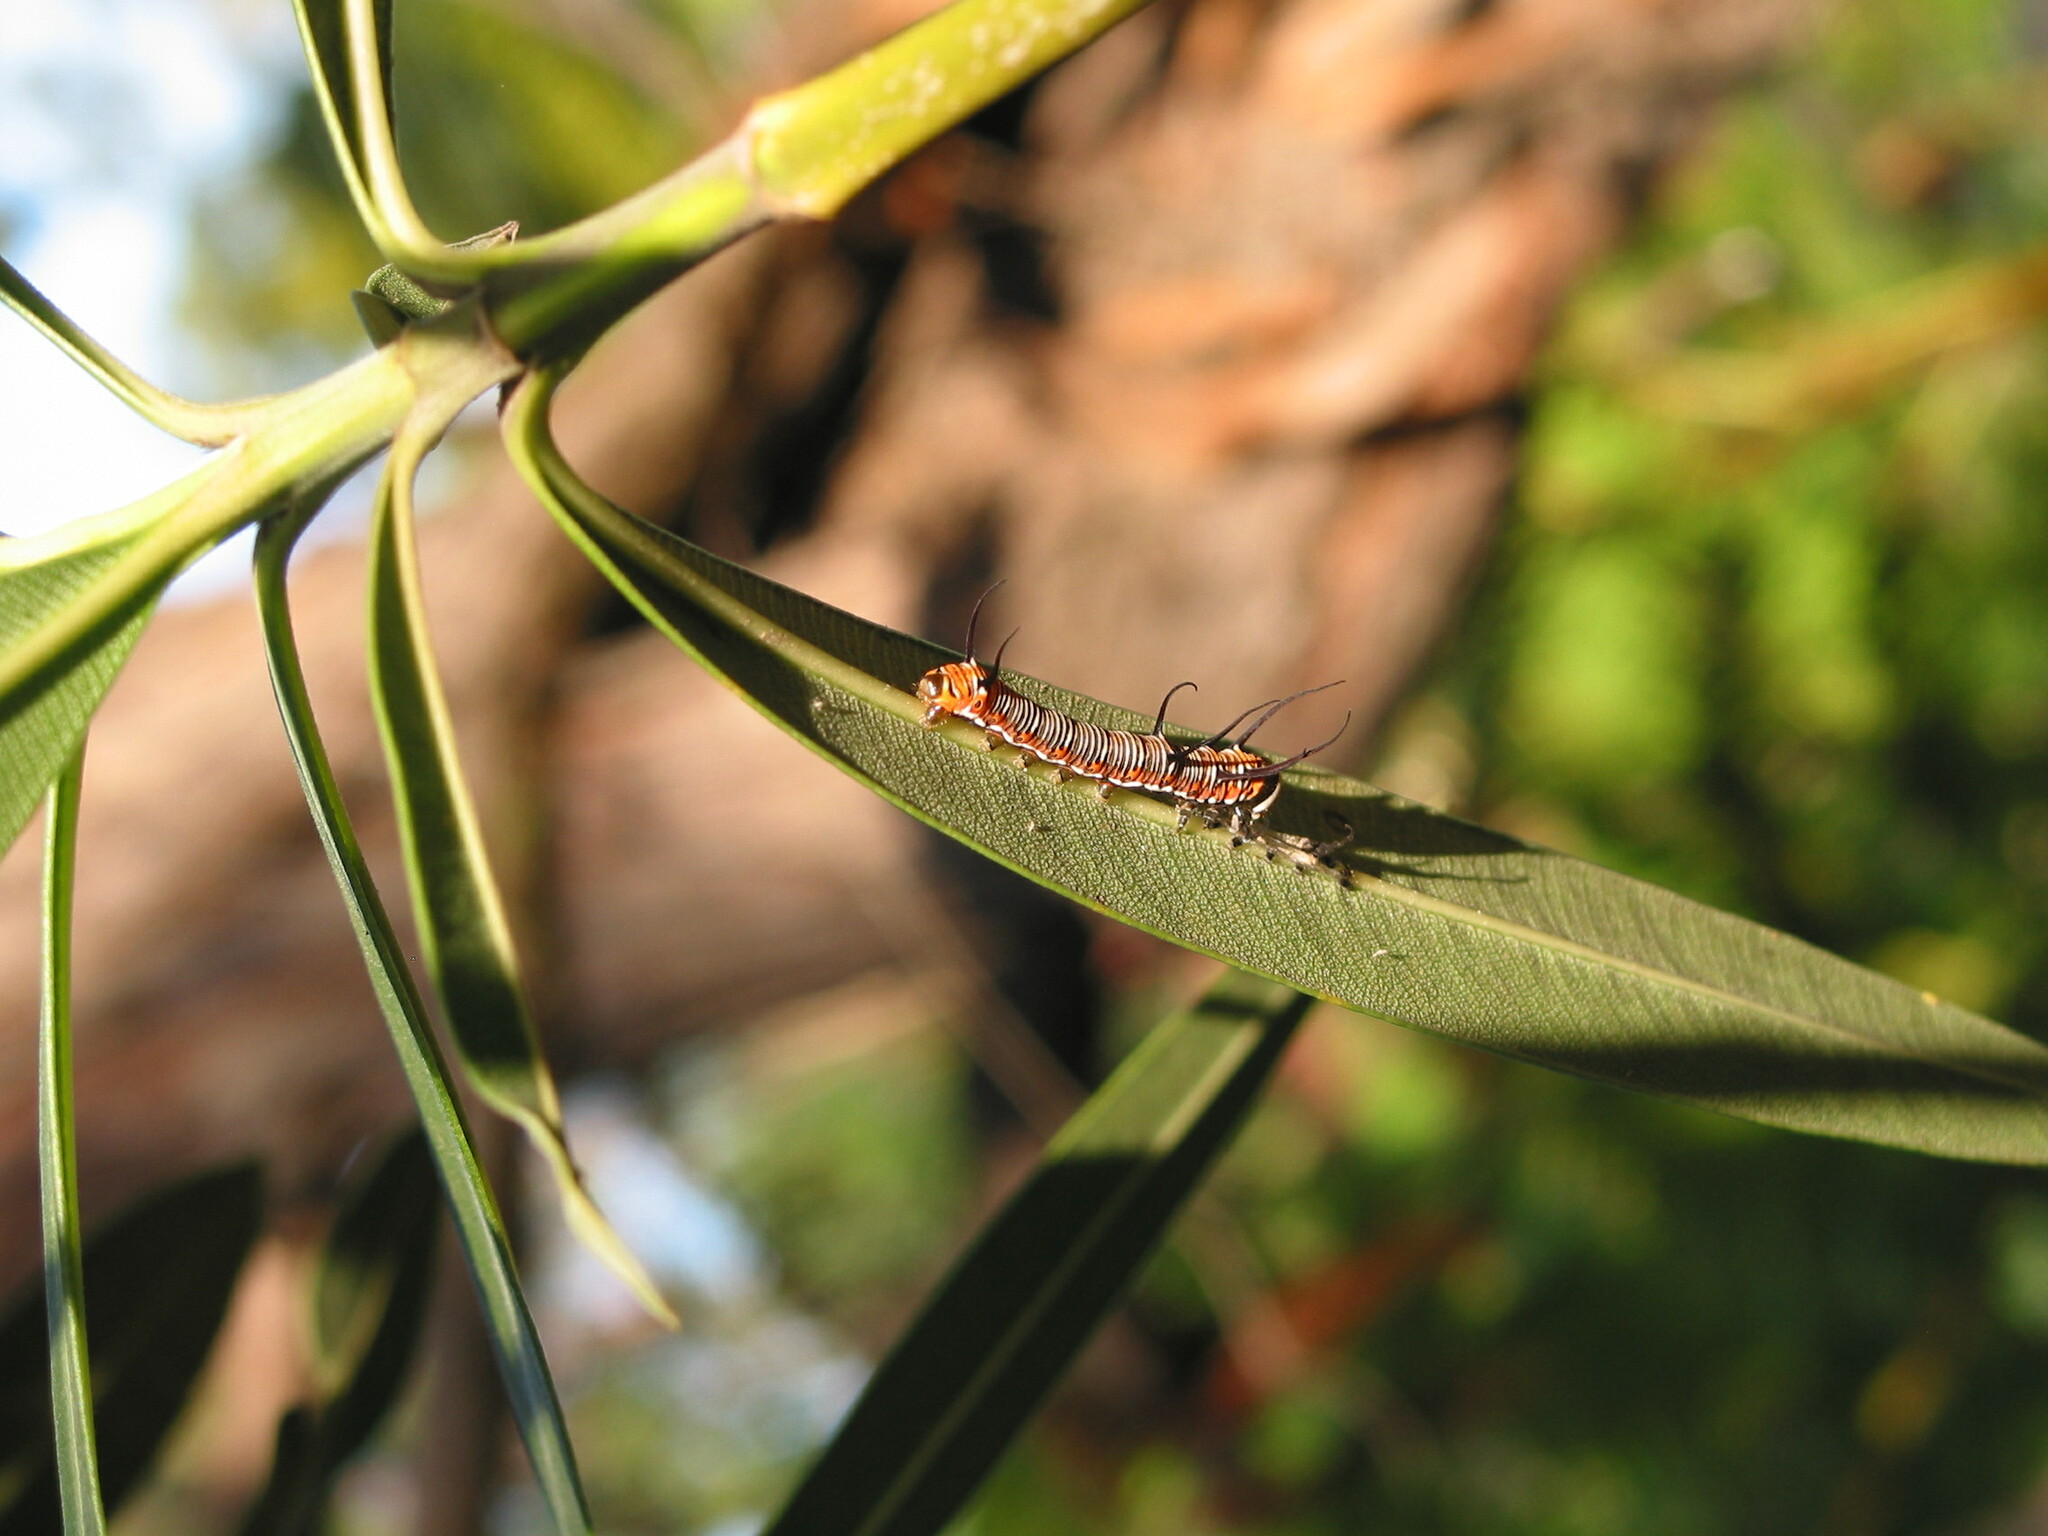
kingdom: Animalia
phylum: Arthropoda
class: Insecta
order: Lepidoptera
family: Nymphalidae
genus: Euploea
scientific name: Euploea core
